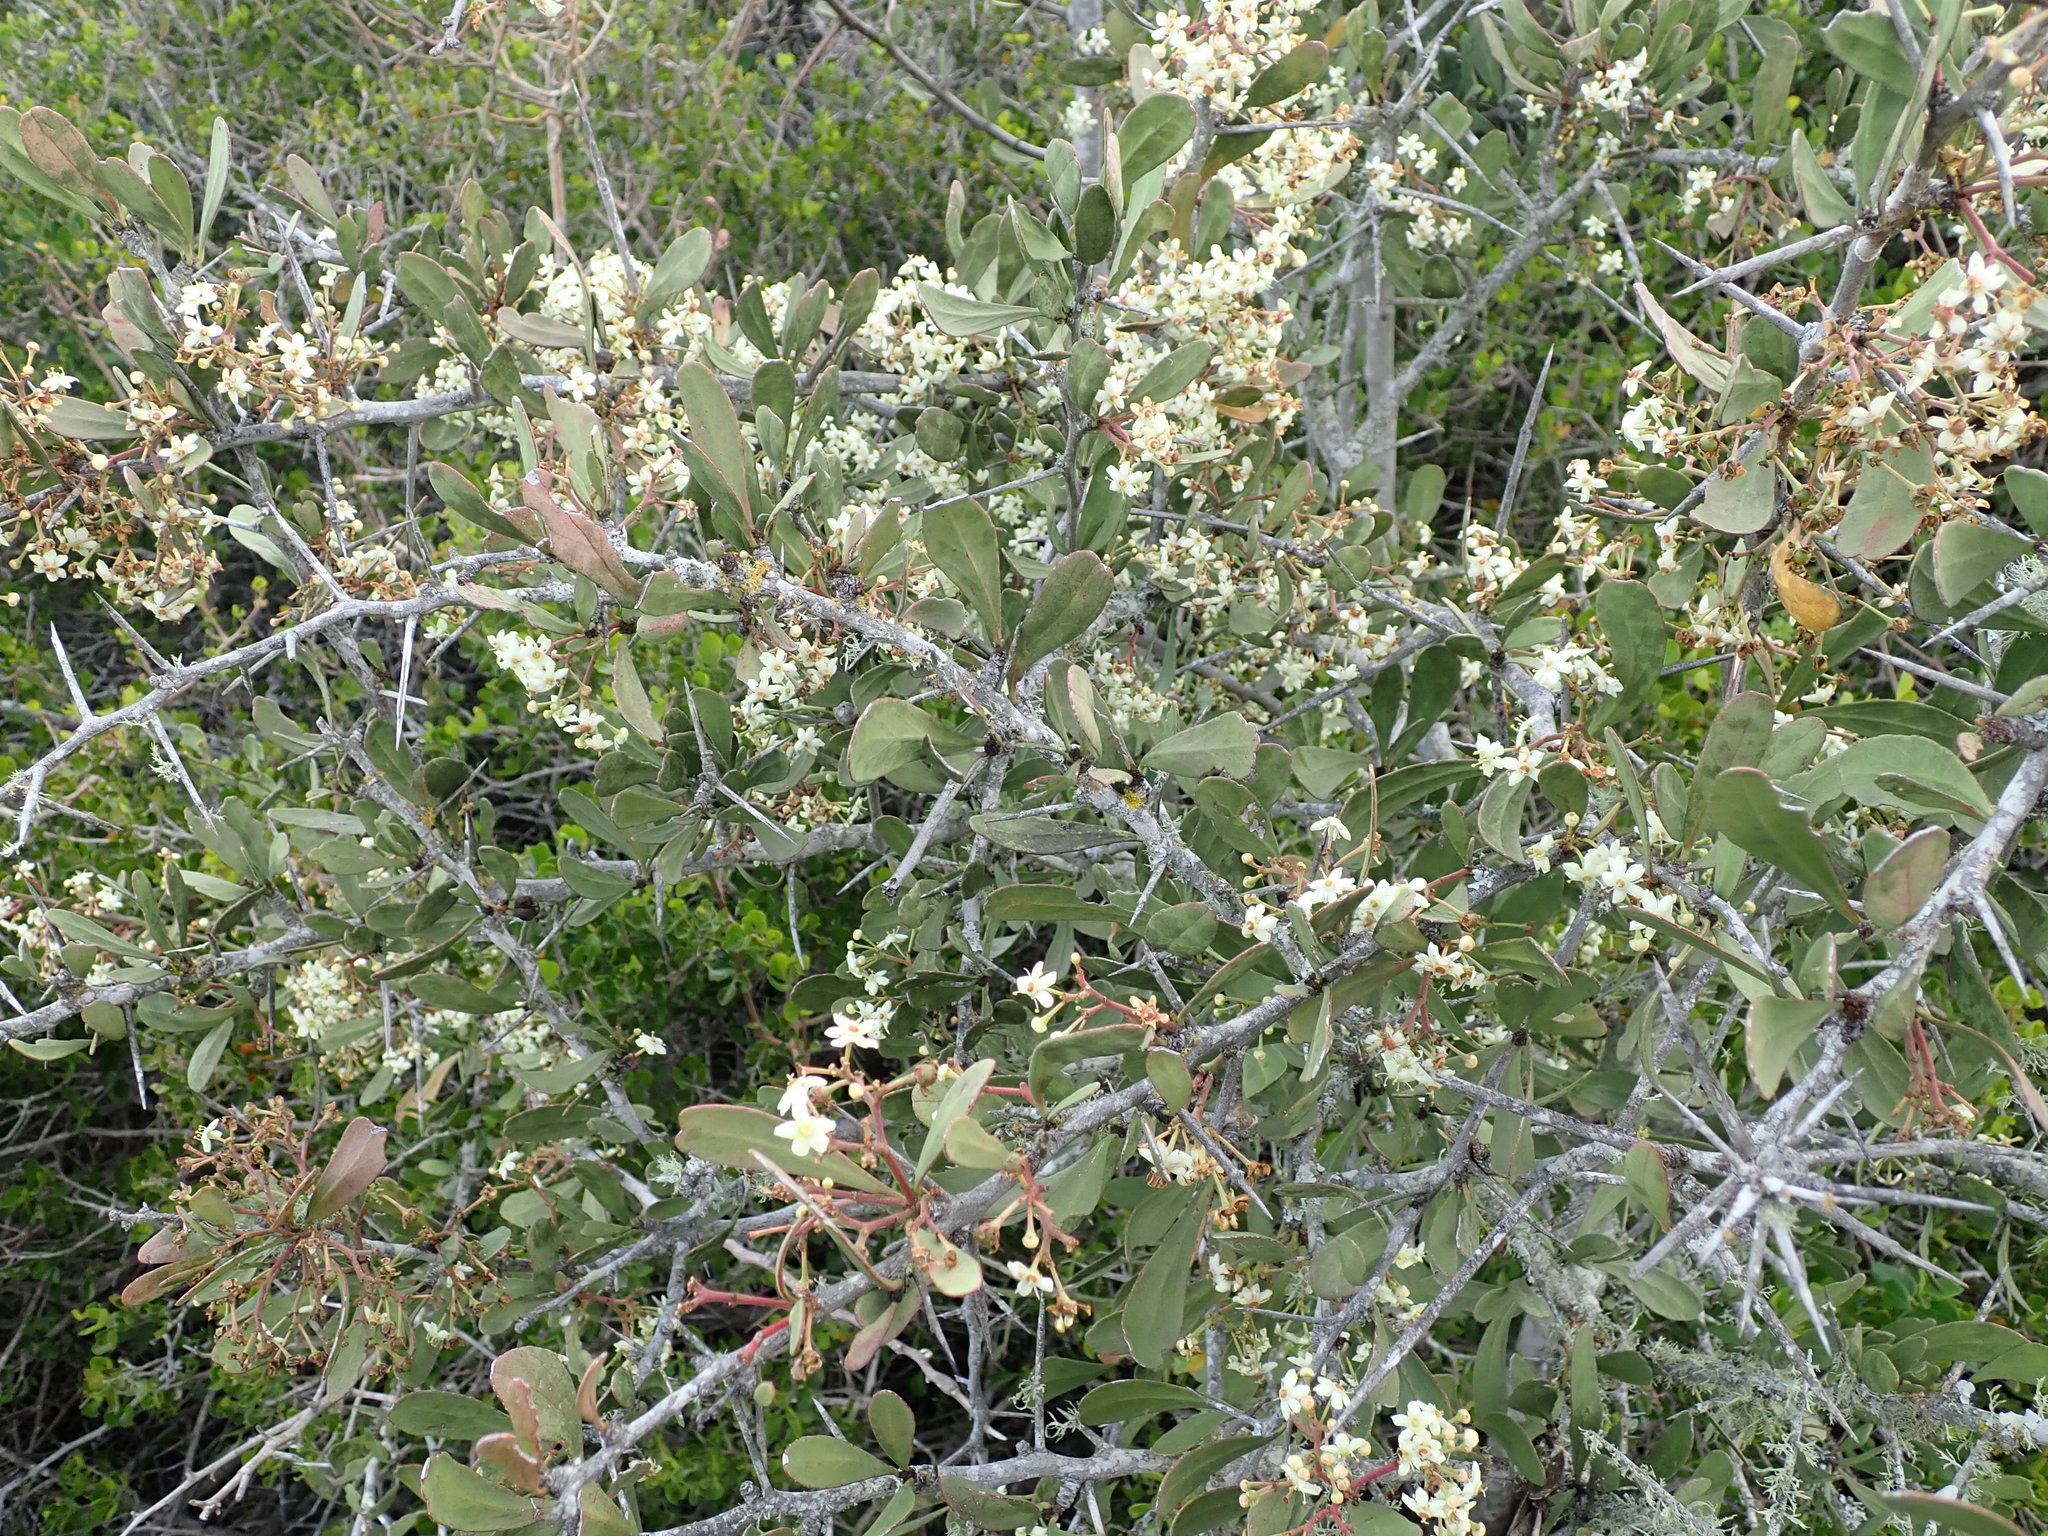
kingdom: Plantae
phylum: Tracheophyta
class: Magnoliopsida
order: Celastrales
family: Celastraceae
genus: Gymnosporia
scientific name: Gymnosporia buxifolia
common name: Common spike-thorn
